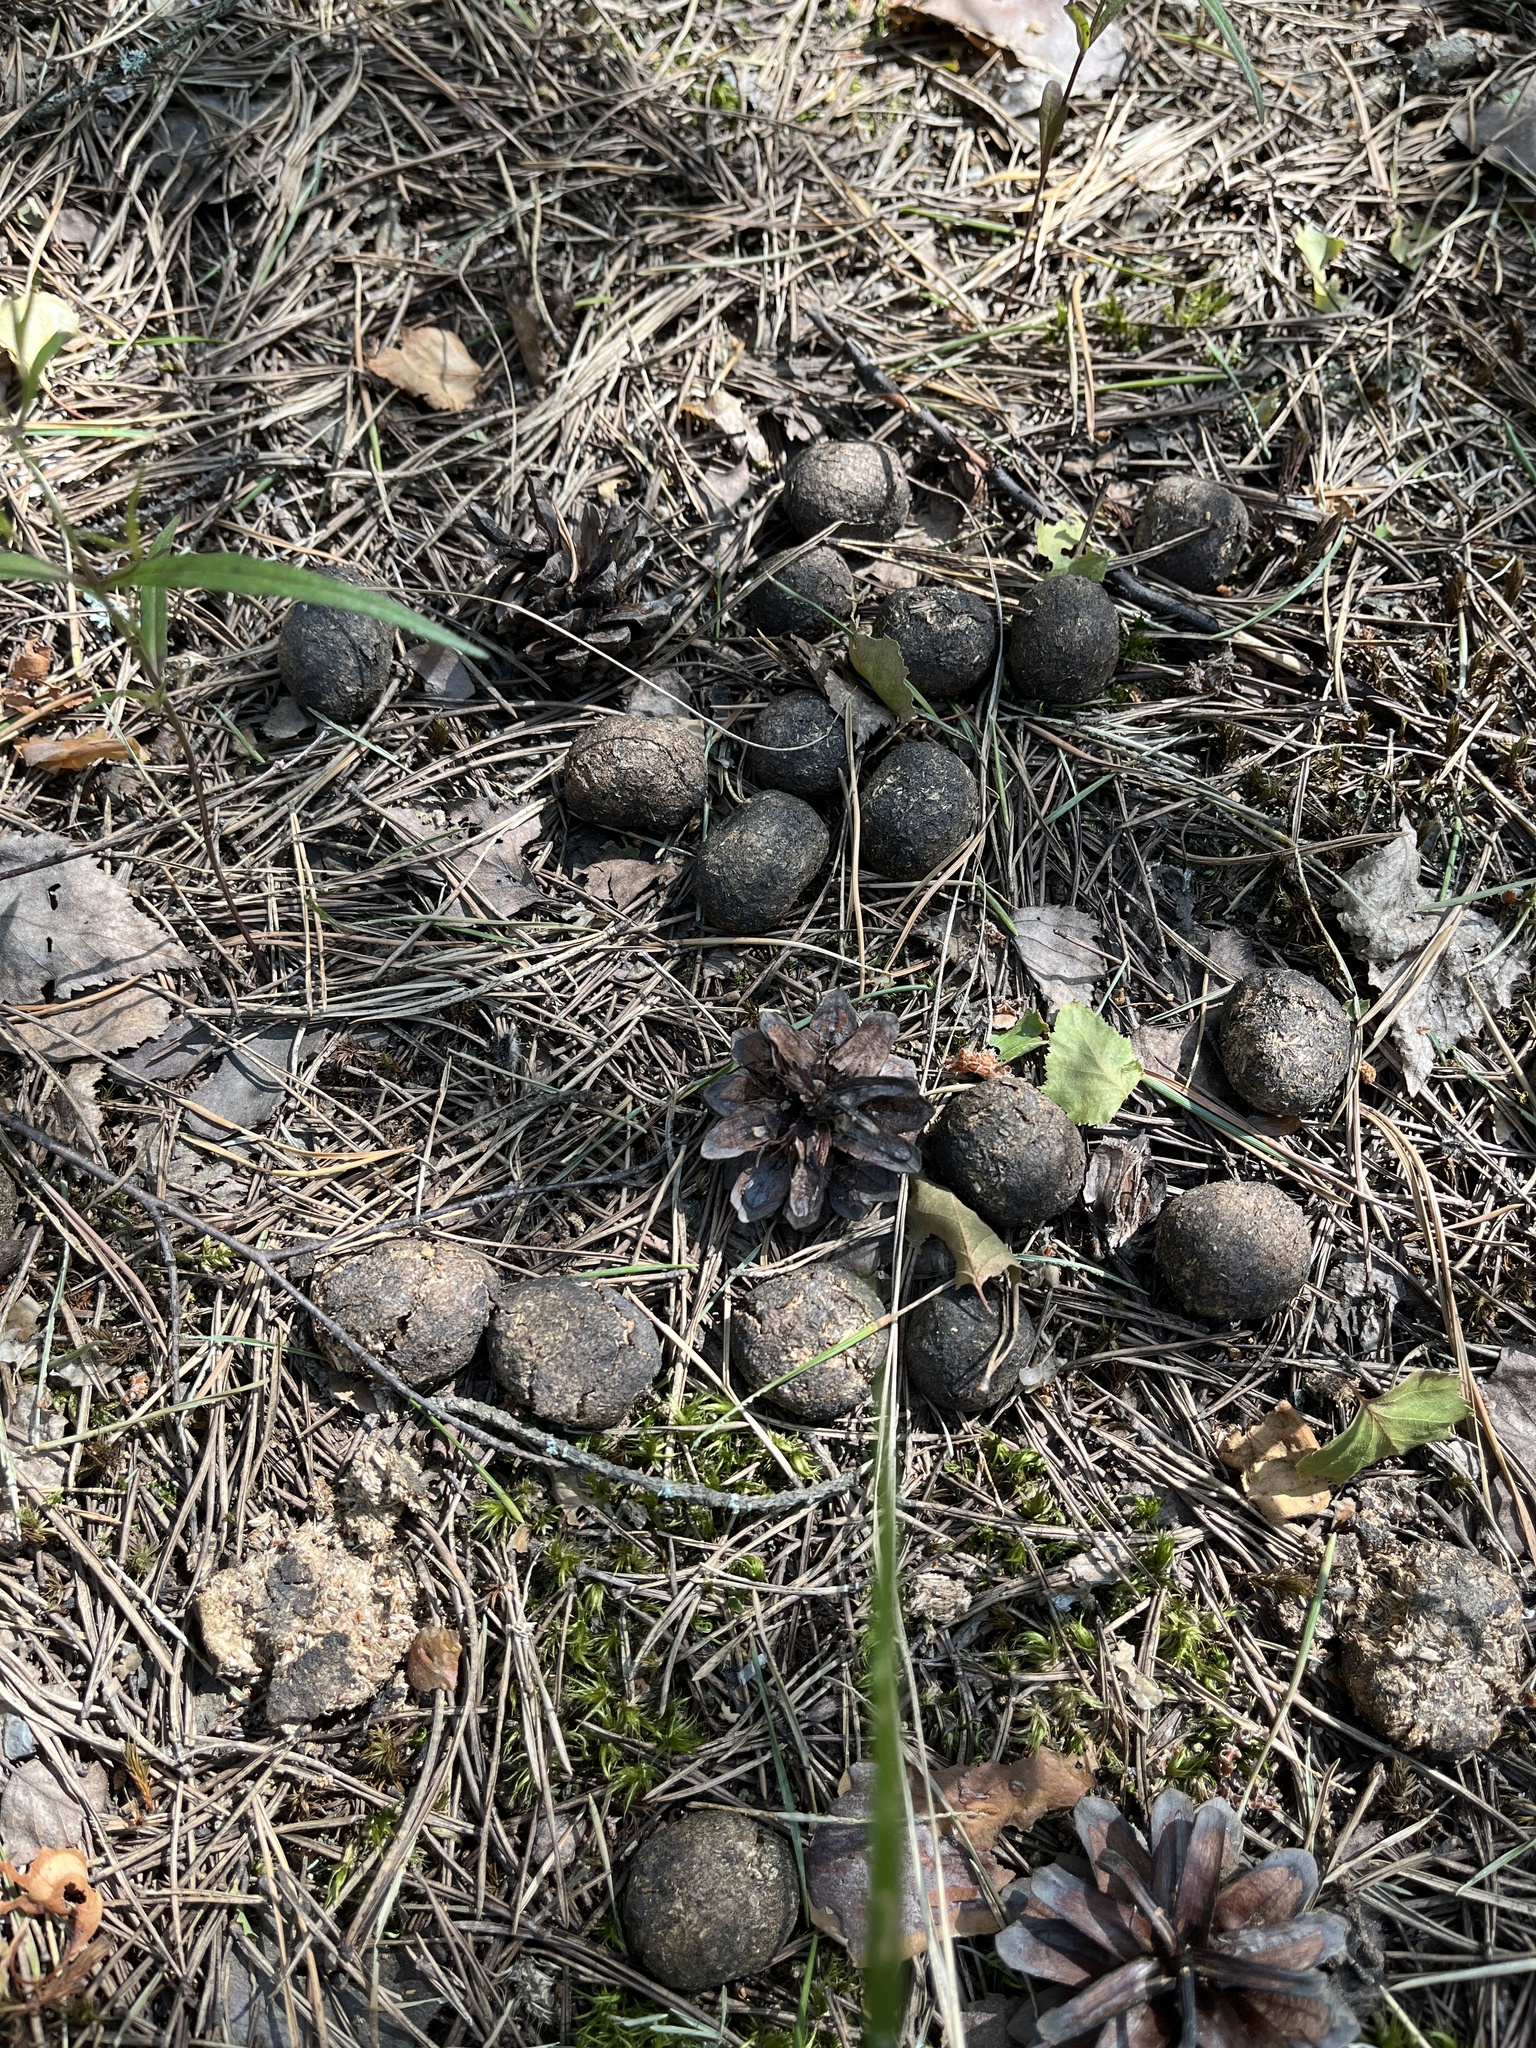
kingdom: Animalia
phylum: Chordata
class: Mammalia
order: Artiodactyla
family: Cervidae
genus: Alces
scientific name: Alces alces
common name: Moose
